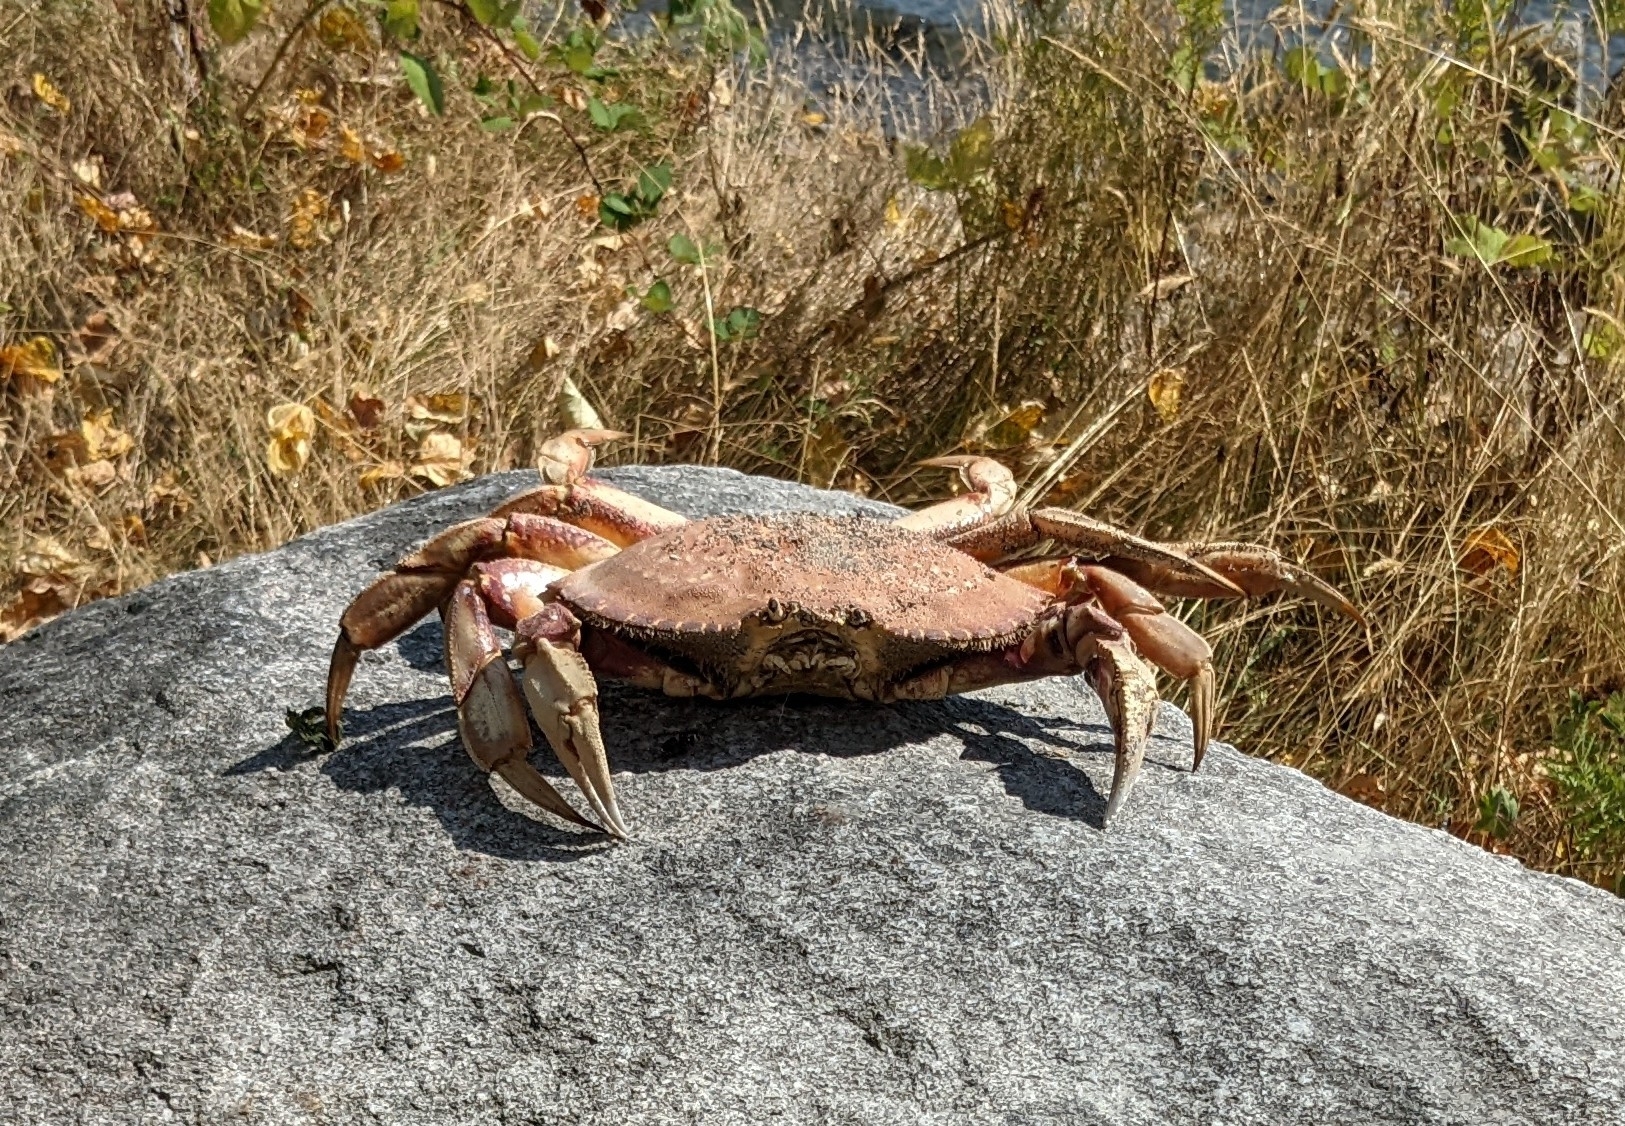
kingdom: Animalia
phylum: Arthropoda
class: Malacostraca
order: Decapoda
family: Cancridae
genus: Metacarcinus
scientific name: Metacarcinus magister
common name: Californian crab
